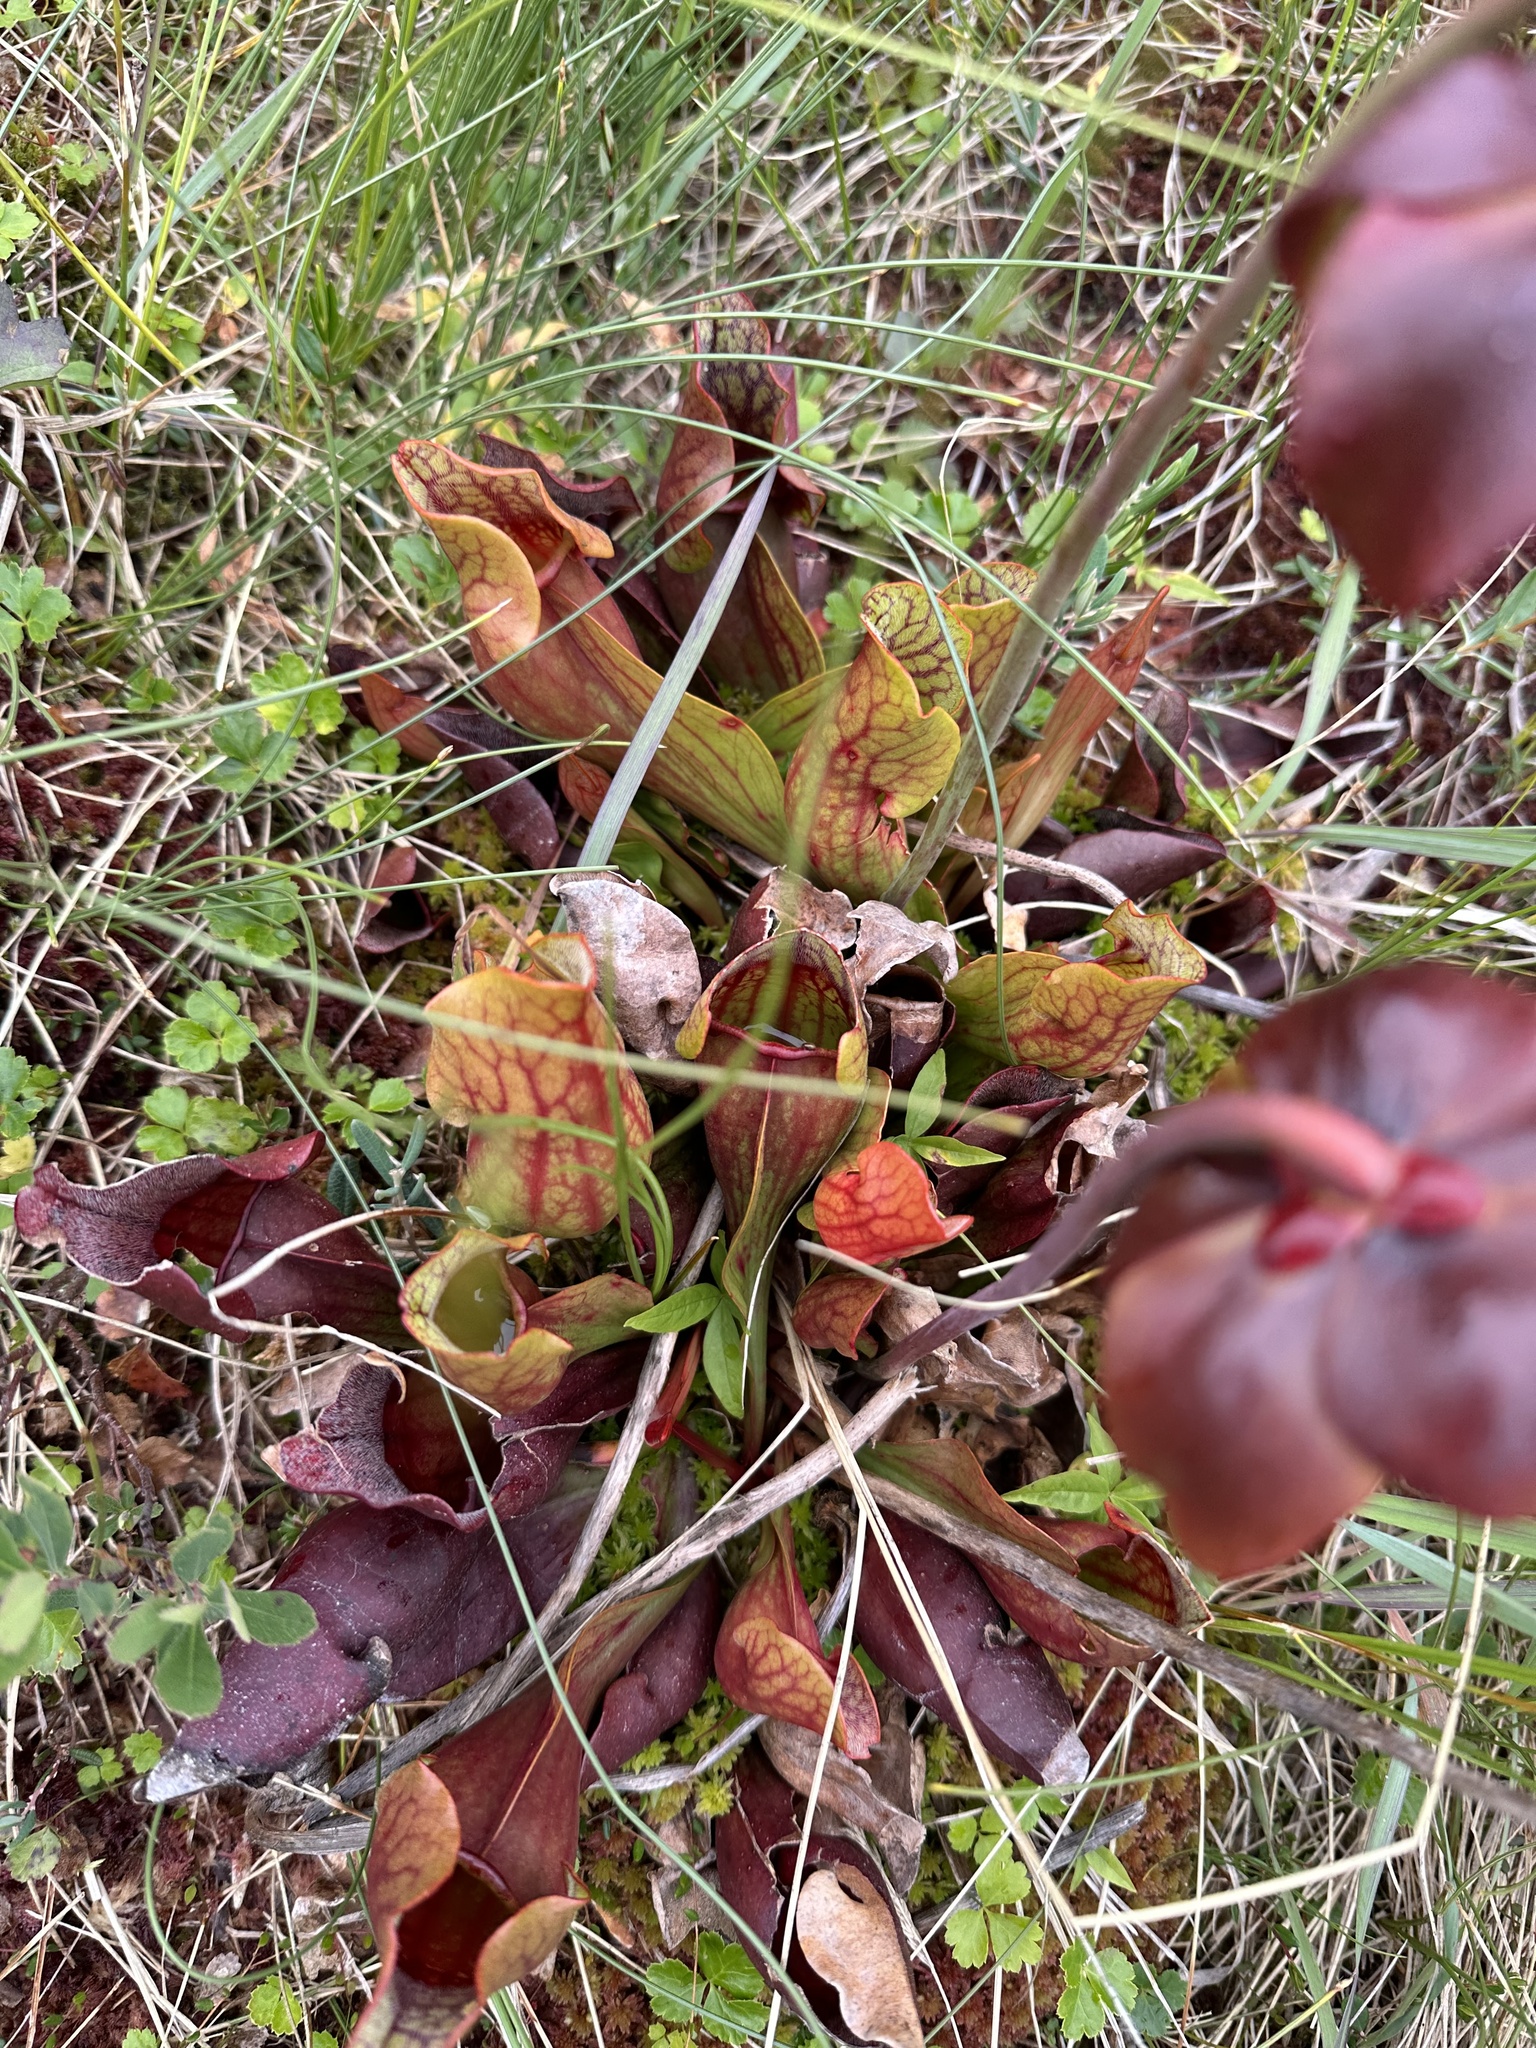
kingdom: Plantae
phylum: Tracheophyta
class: Magnoliopsida
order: Ericales
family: Sarraceniaceae
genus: Sarracenia
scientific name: Sarracenia purpurea
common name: Pitcherplant
